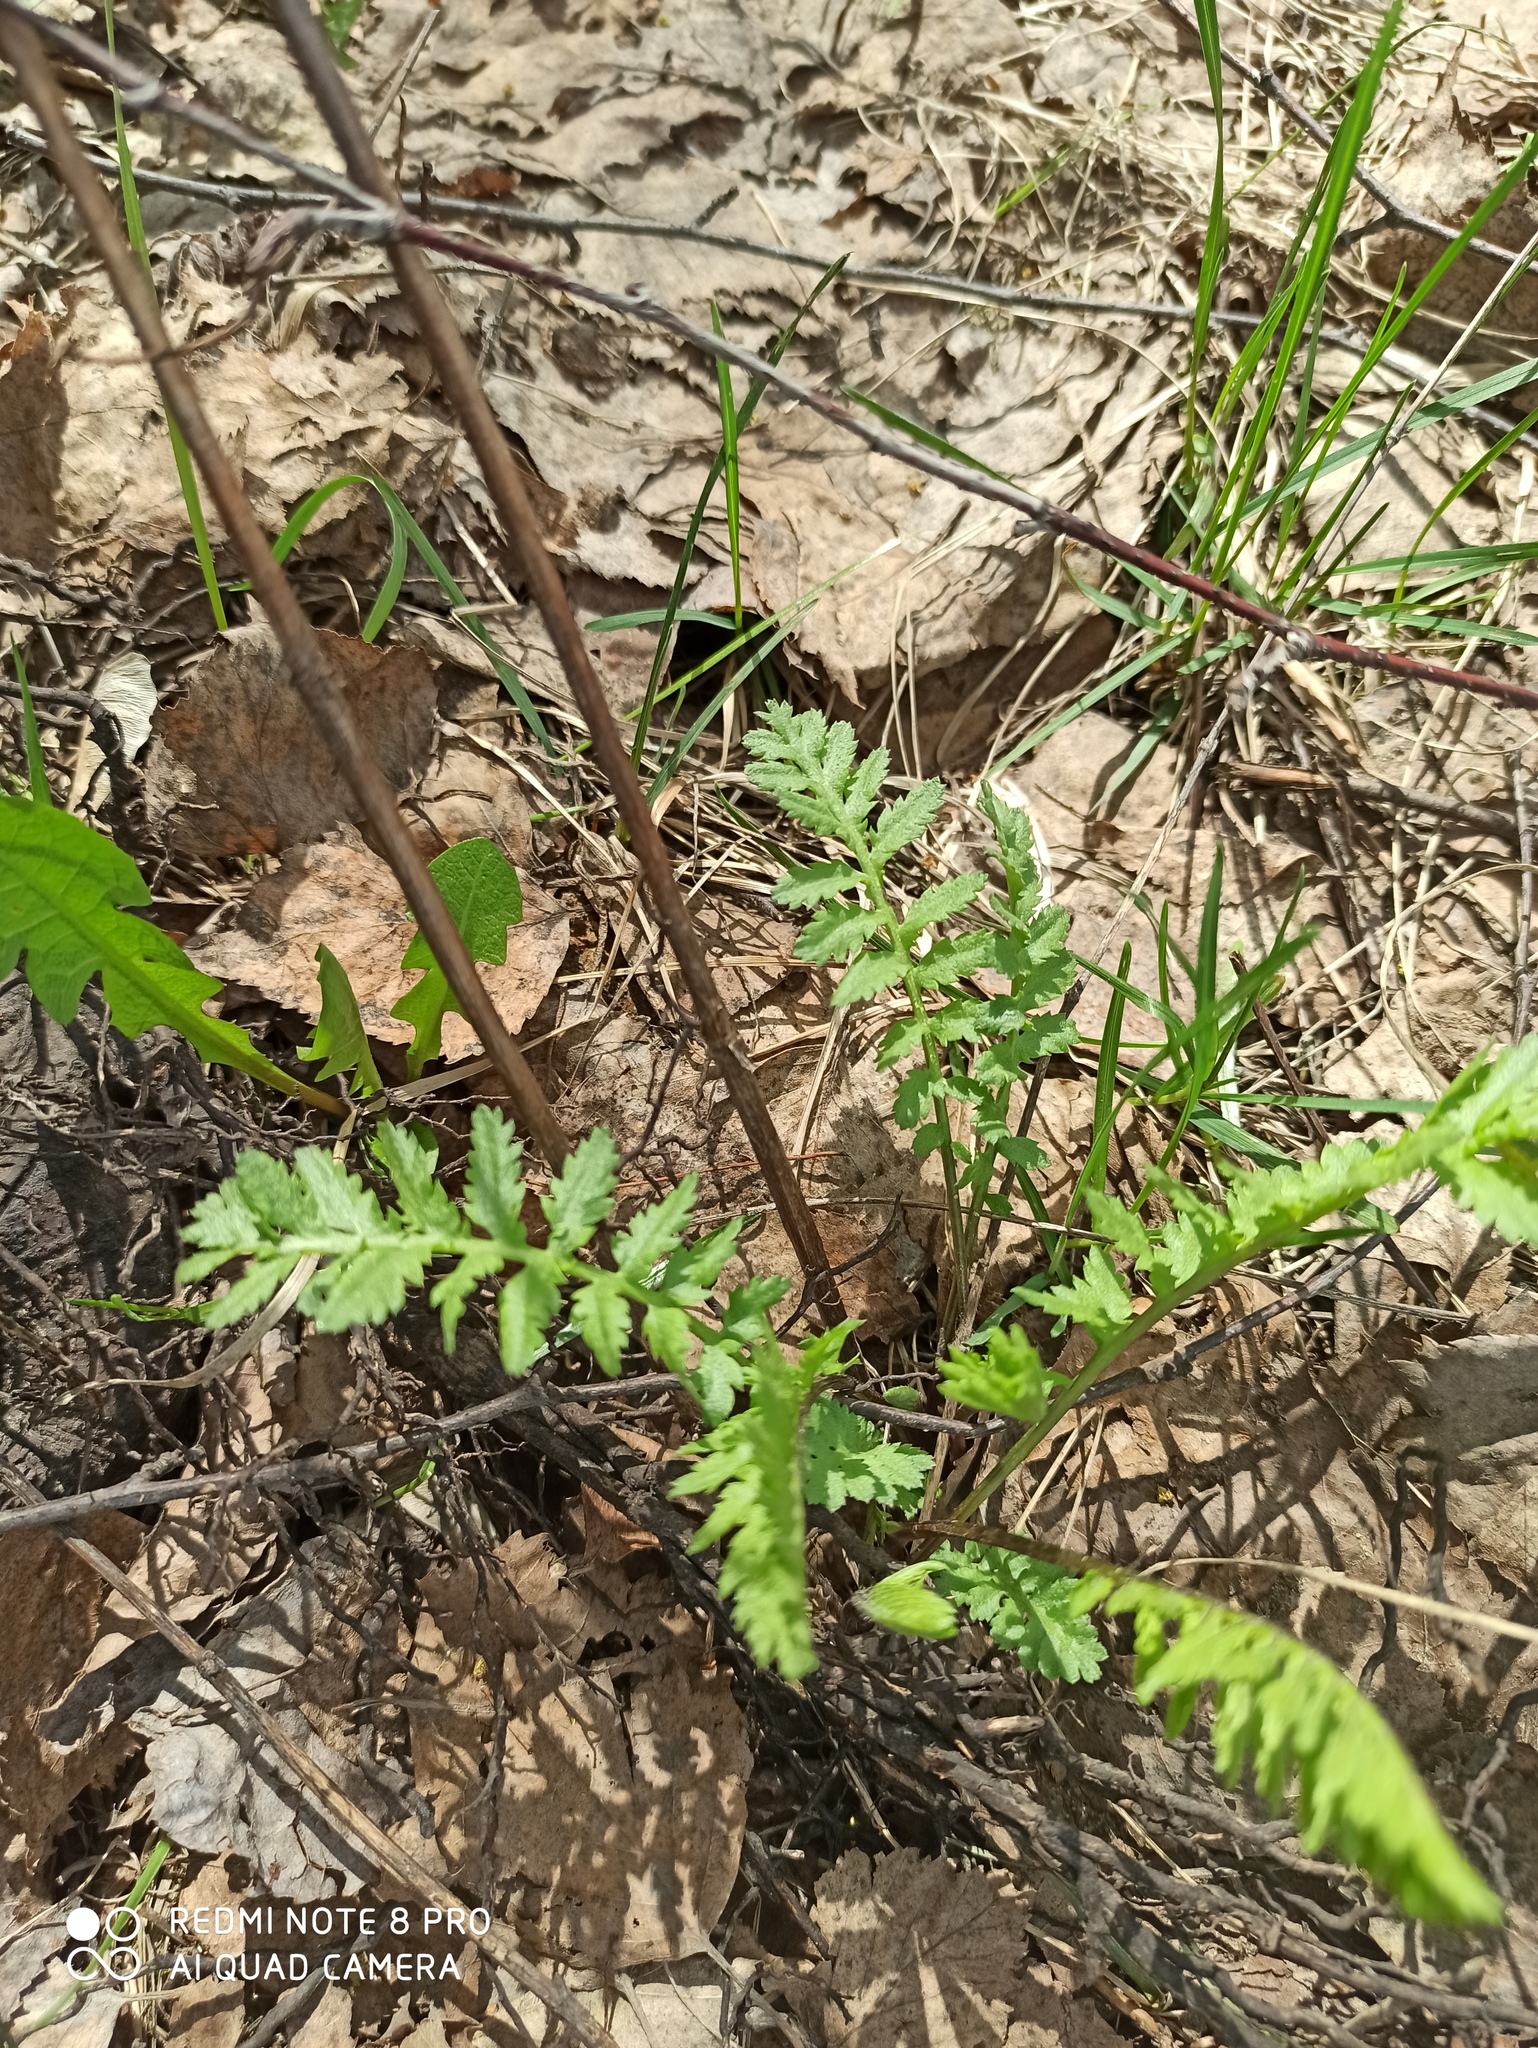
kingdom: Plantae
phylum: Tracheophyta
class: Magnoliopsida
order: Asterales
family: Asteraceae
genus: Tanacetum
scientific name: Tanacetum vulgare
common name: Common tansy
